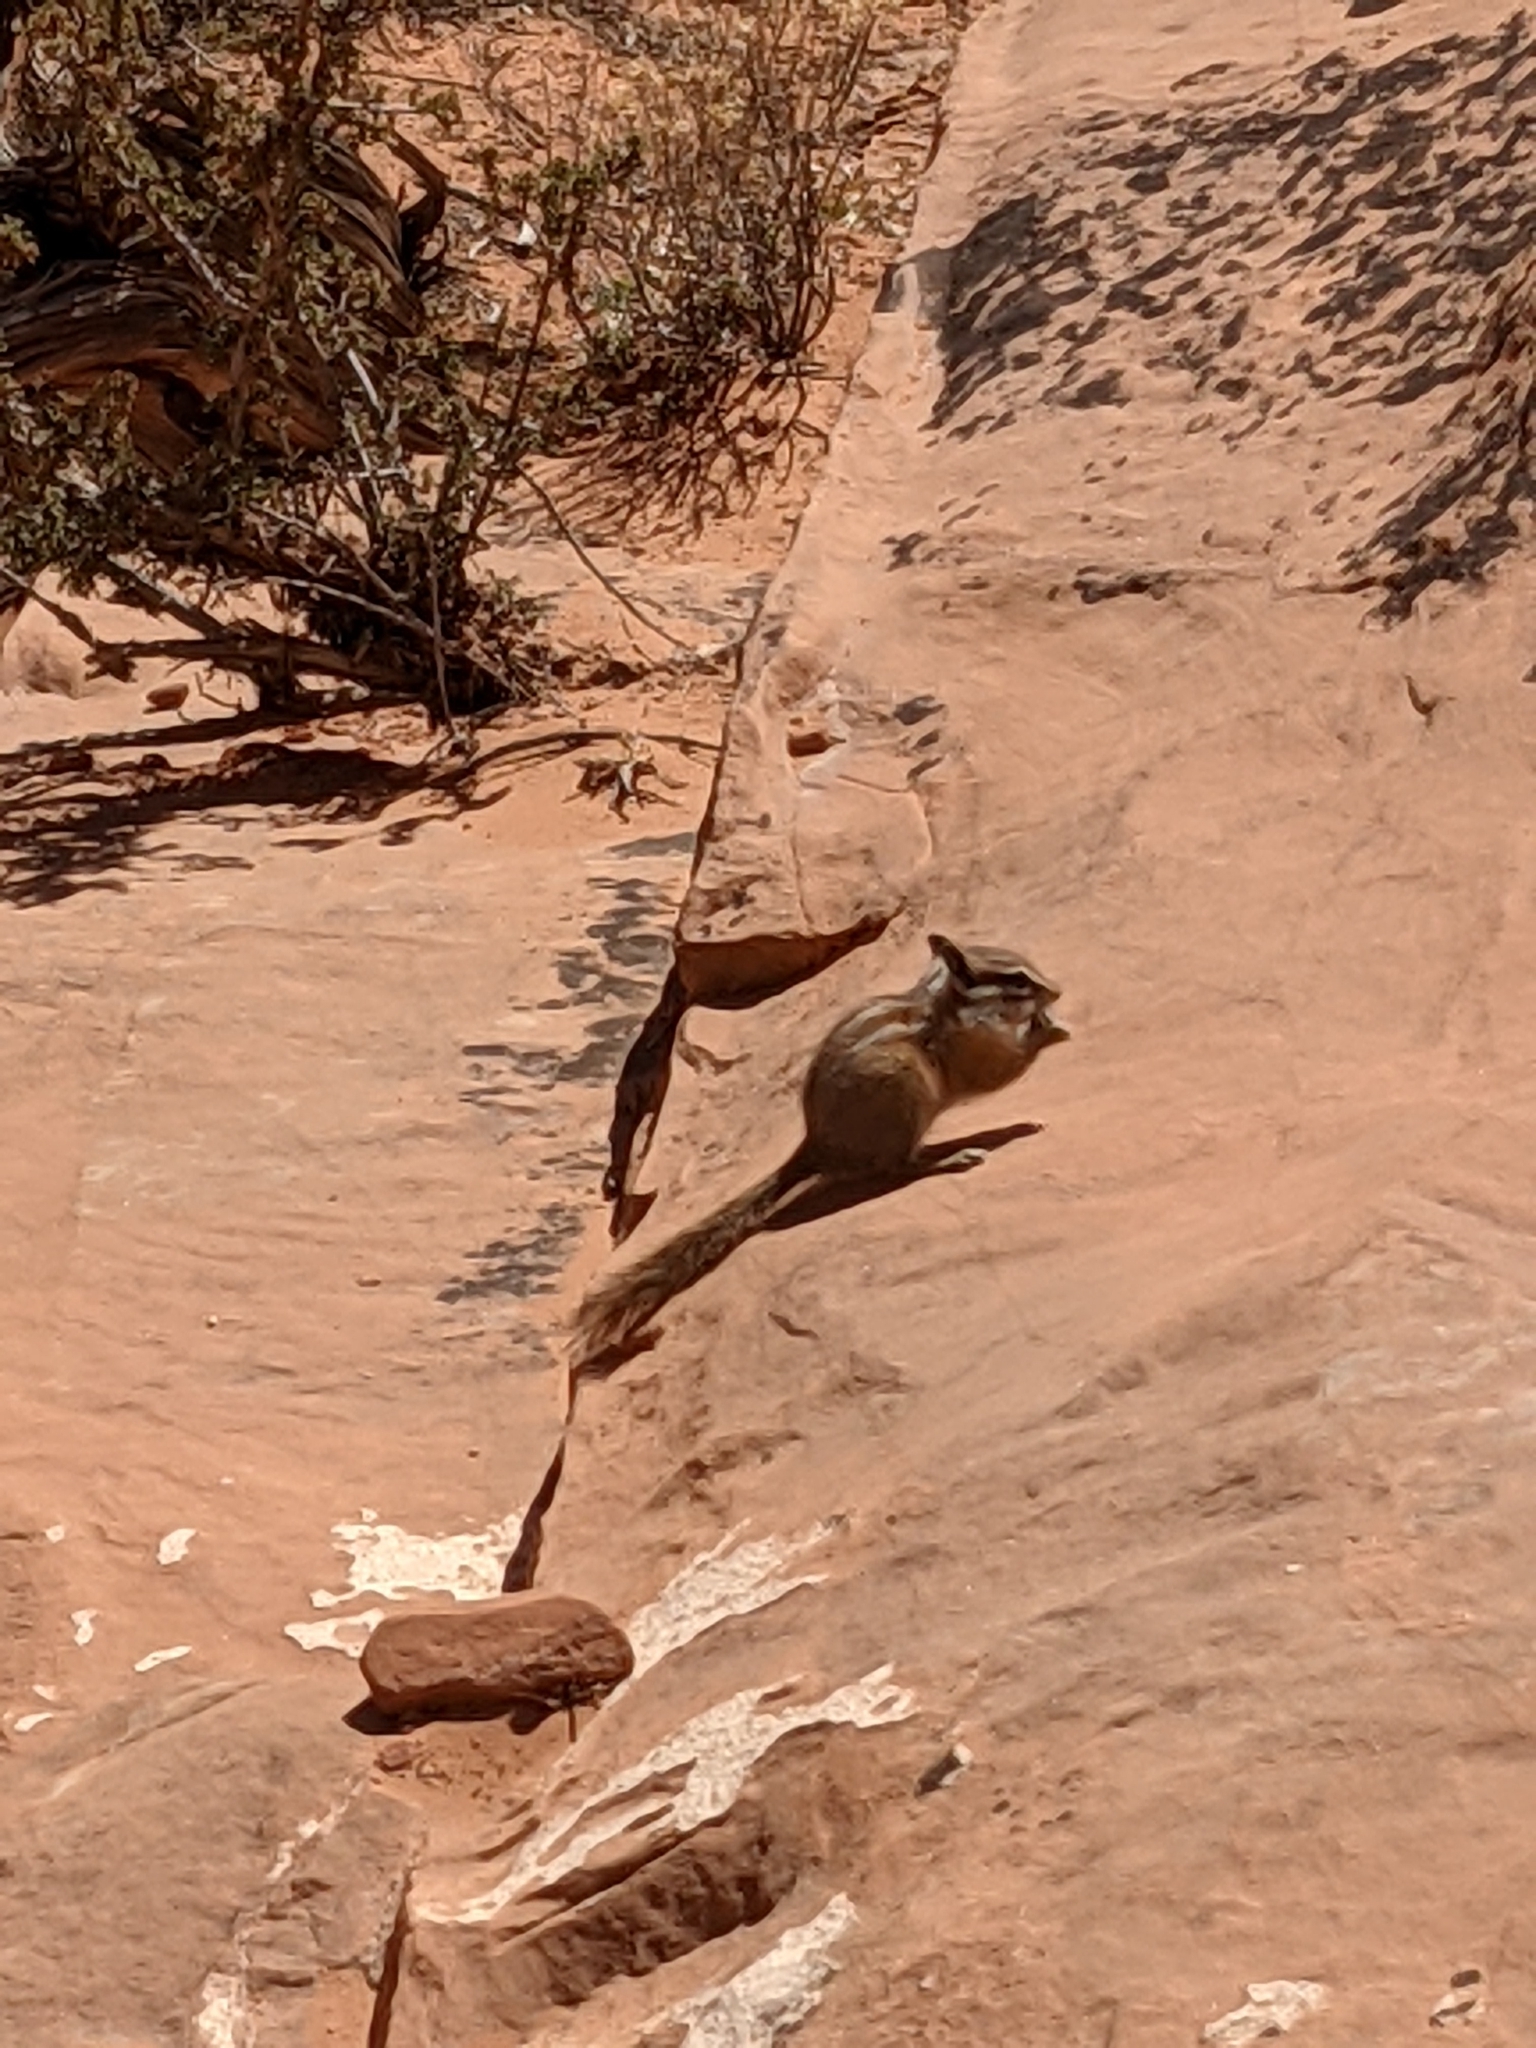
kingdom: Animalia
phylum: Chordata
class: Mammalia
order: Rodentia
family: Sciuridae
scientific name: Sciuridae
